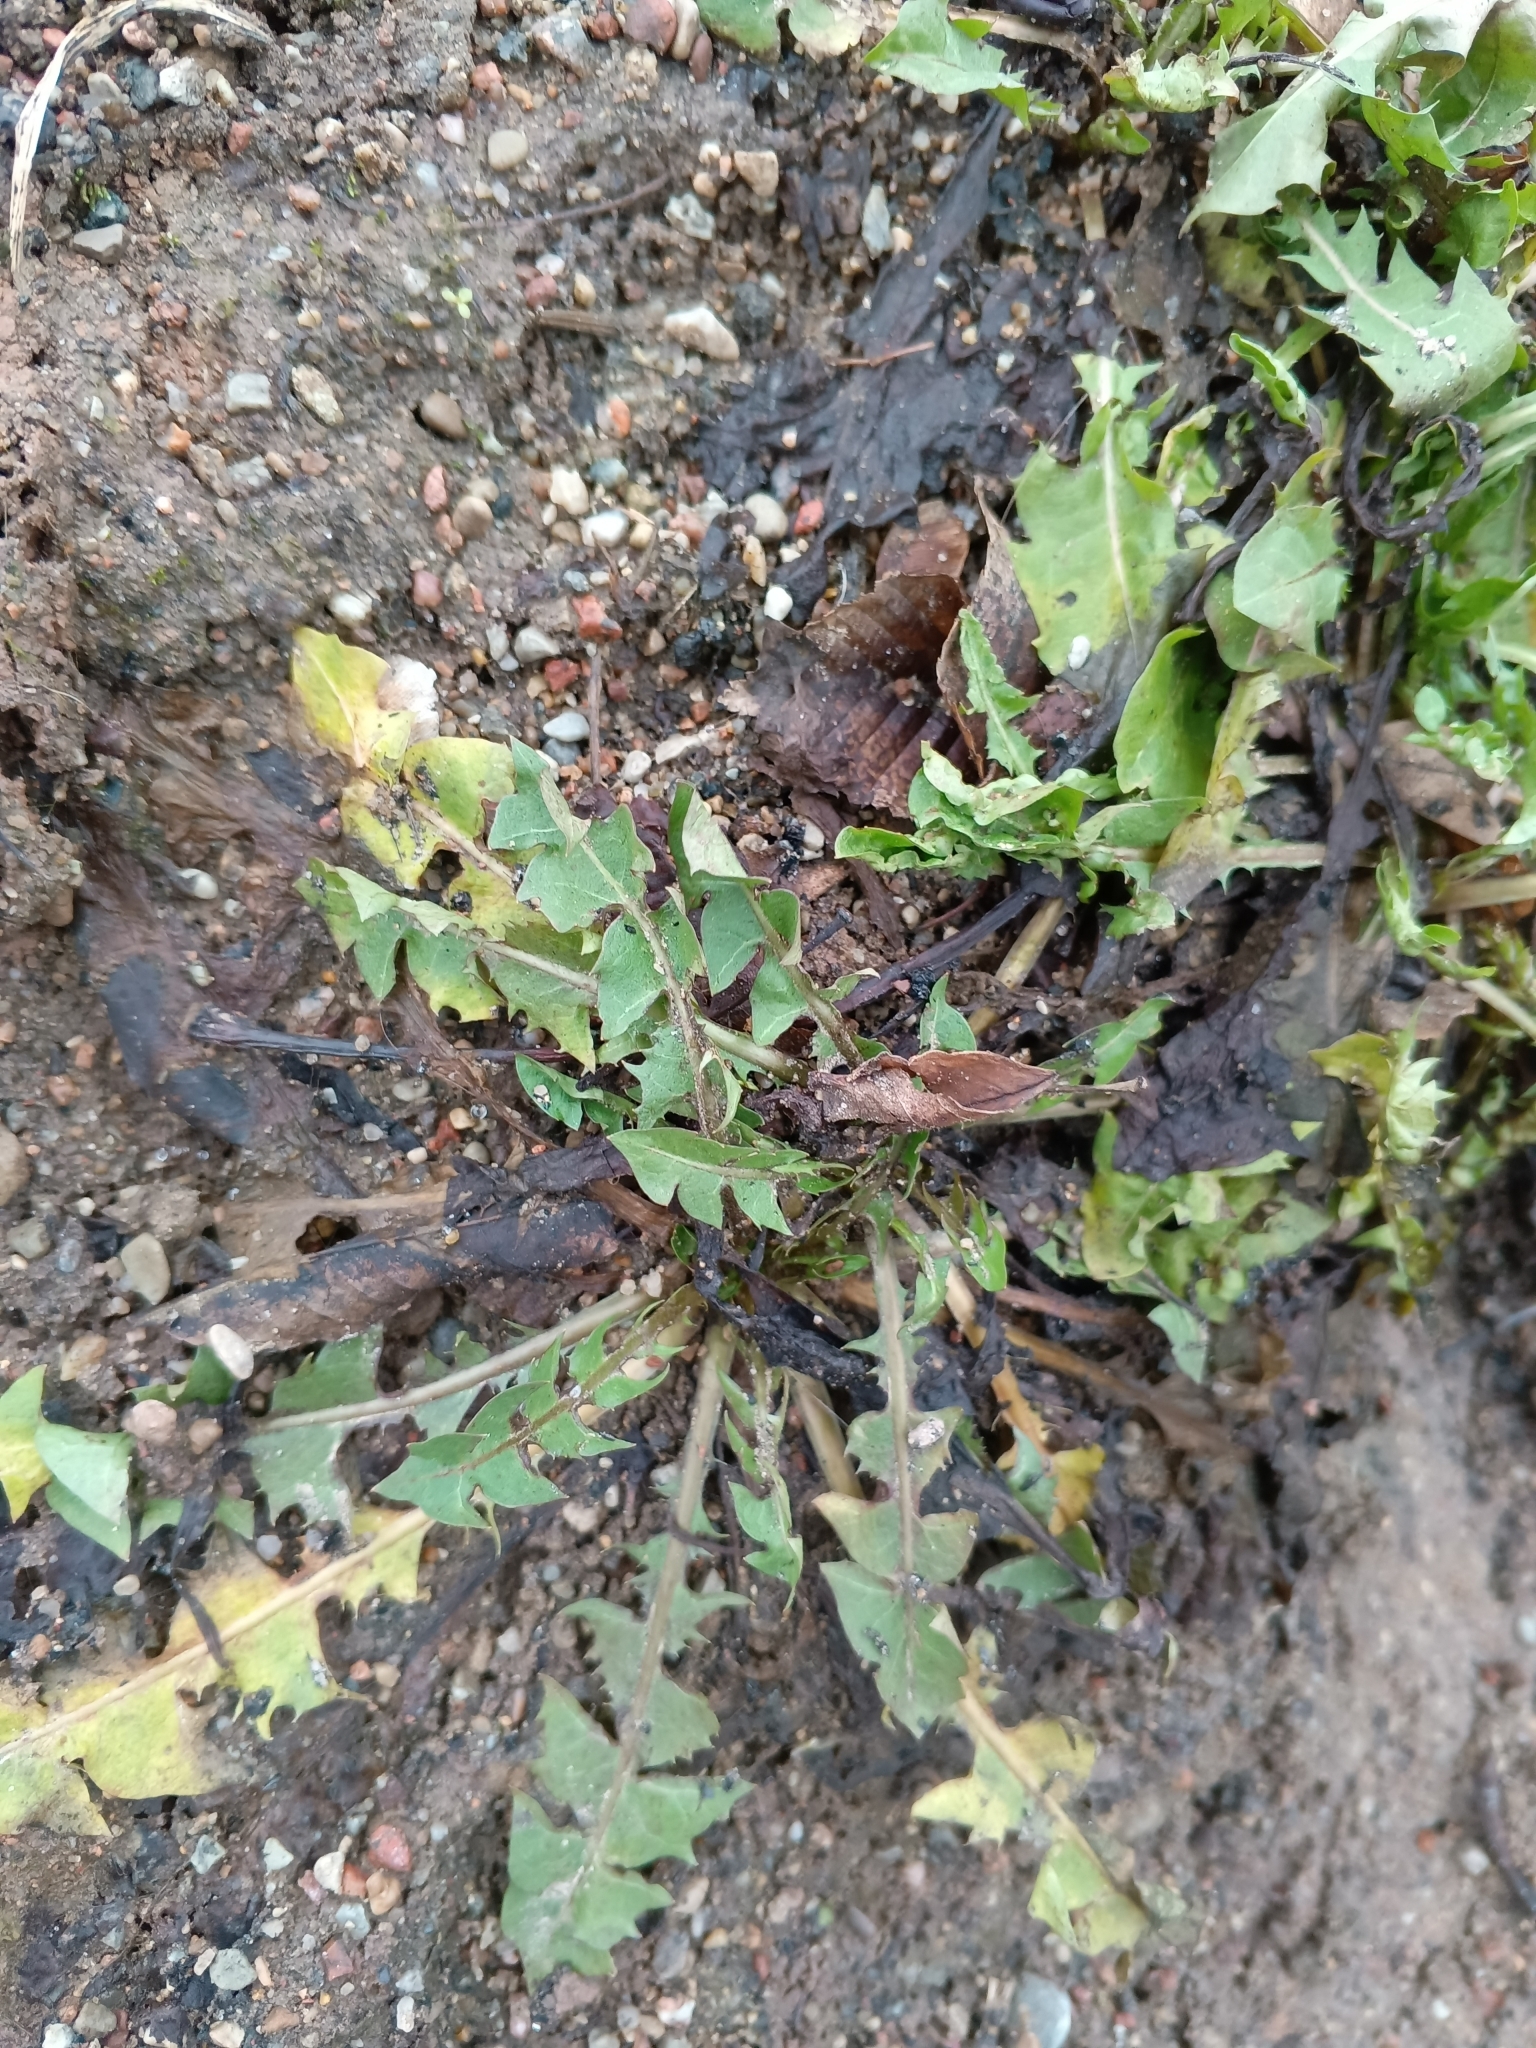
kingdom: Plantae
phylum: Tracheophyta
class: Magnoliopsida
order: Asterales
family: Asteraceae
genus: Taraxacum
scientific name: Taraxacum officinale
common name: Common dandelion
